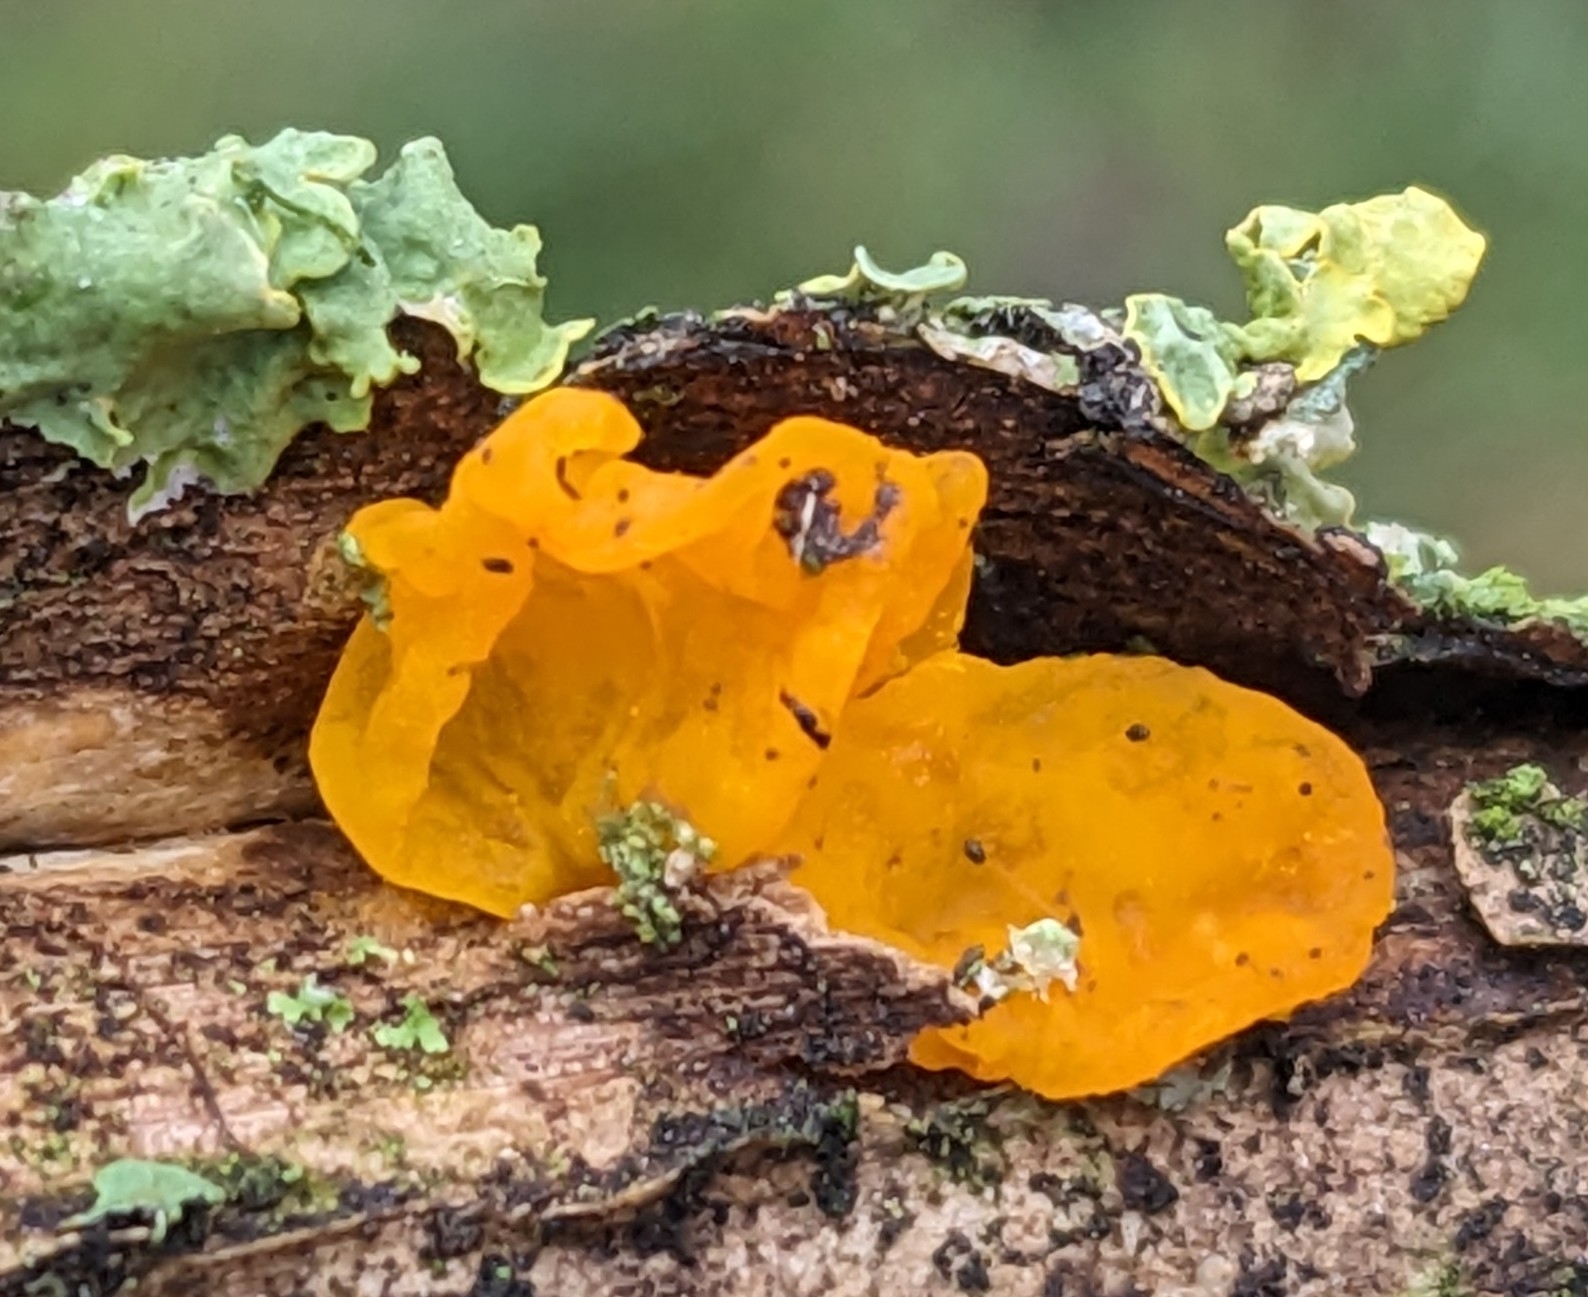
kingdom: Fungi
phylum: Basidiomycota
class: Tremellomycetes
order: Tremellales
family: Tremellaceae
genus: Tremella
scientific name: Tremella mesenterica
